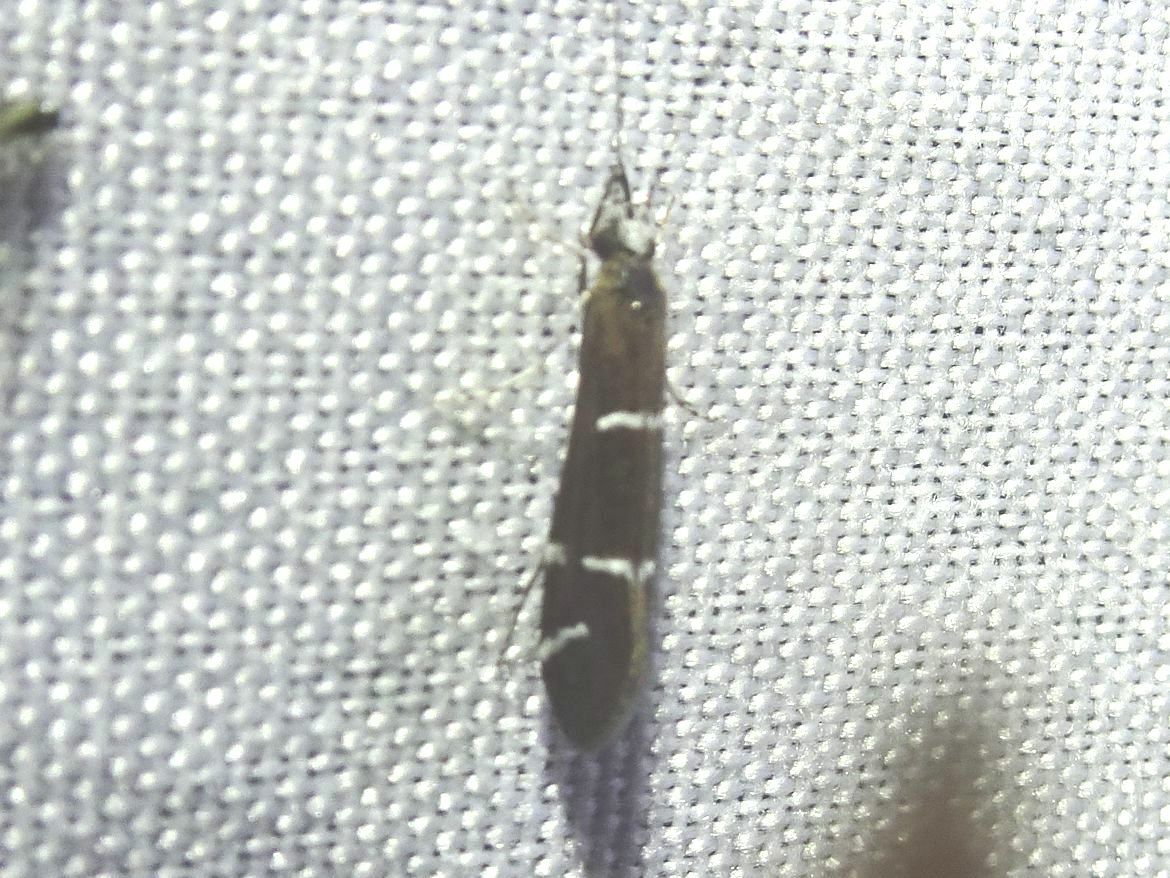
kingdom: Animalia
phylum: Arthropoda
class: Insecta
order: Trichoptera
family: Leptoceridae
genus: Athripsodes
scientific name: Athripsodes albifrons
